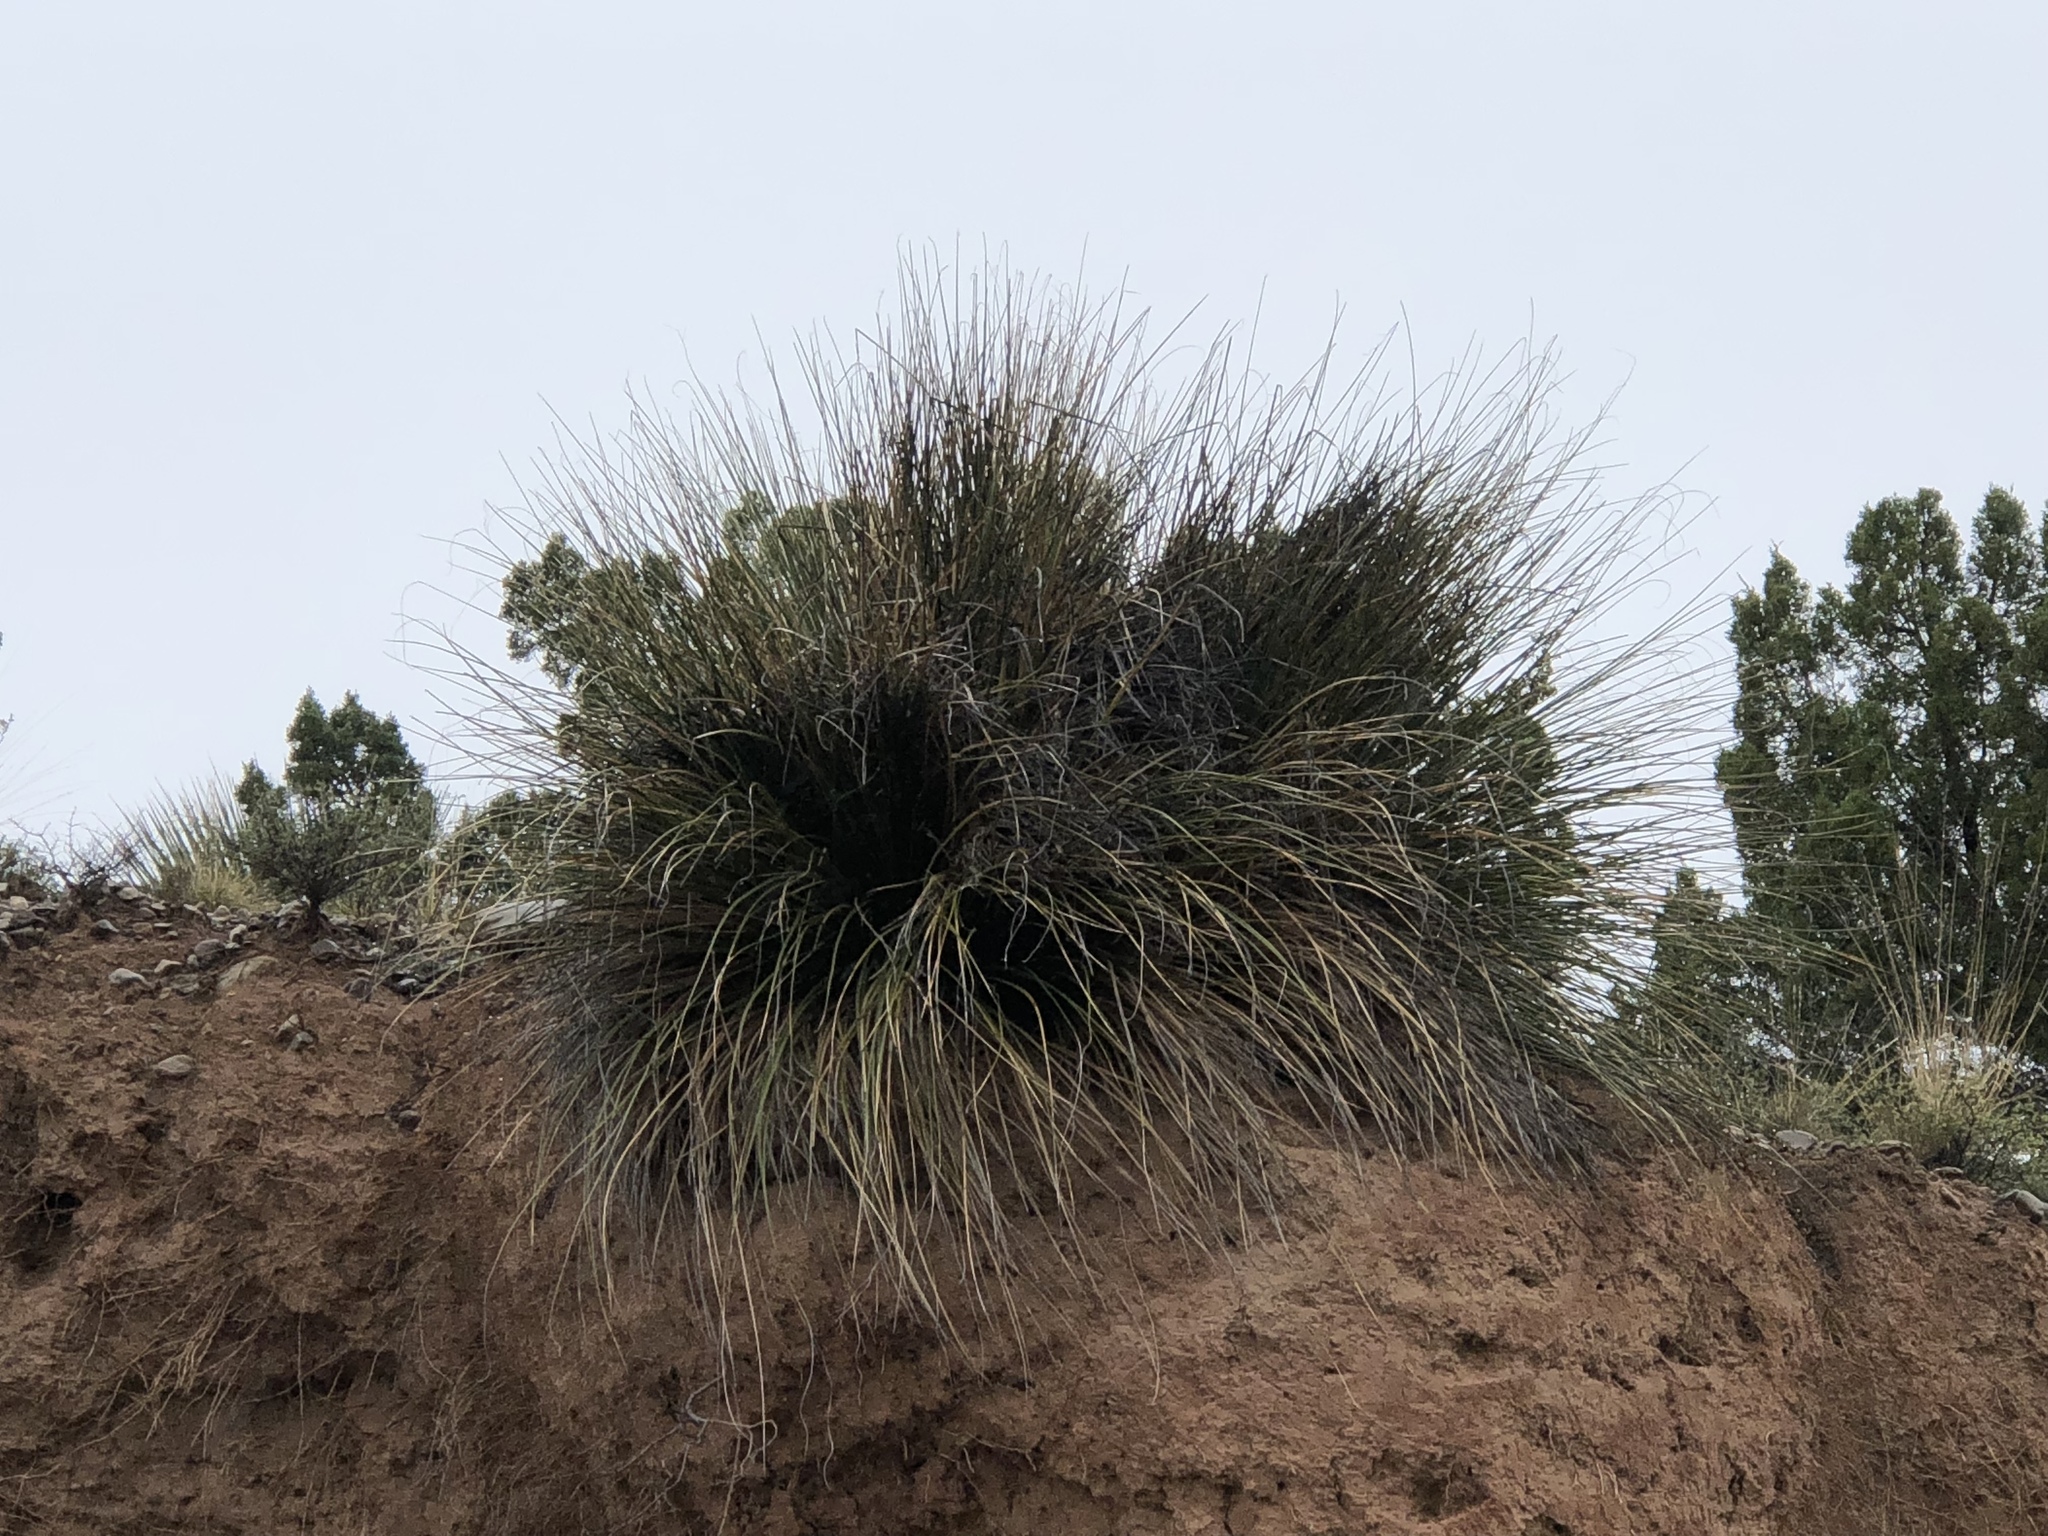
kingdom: Plantae
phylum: Tracheophyta
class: Liliopsida
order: Asparagales
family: Asparagaceae
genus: Nolina
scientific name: Nolina microcarpa
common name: Bear-grass
